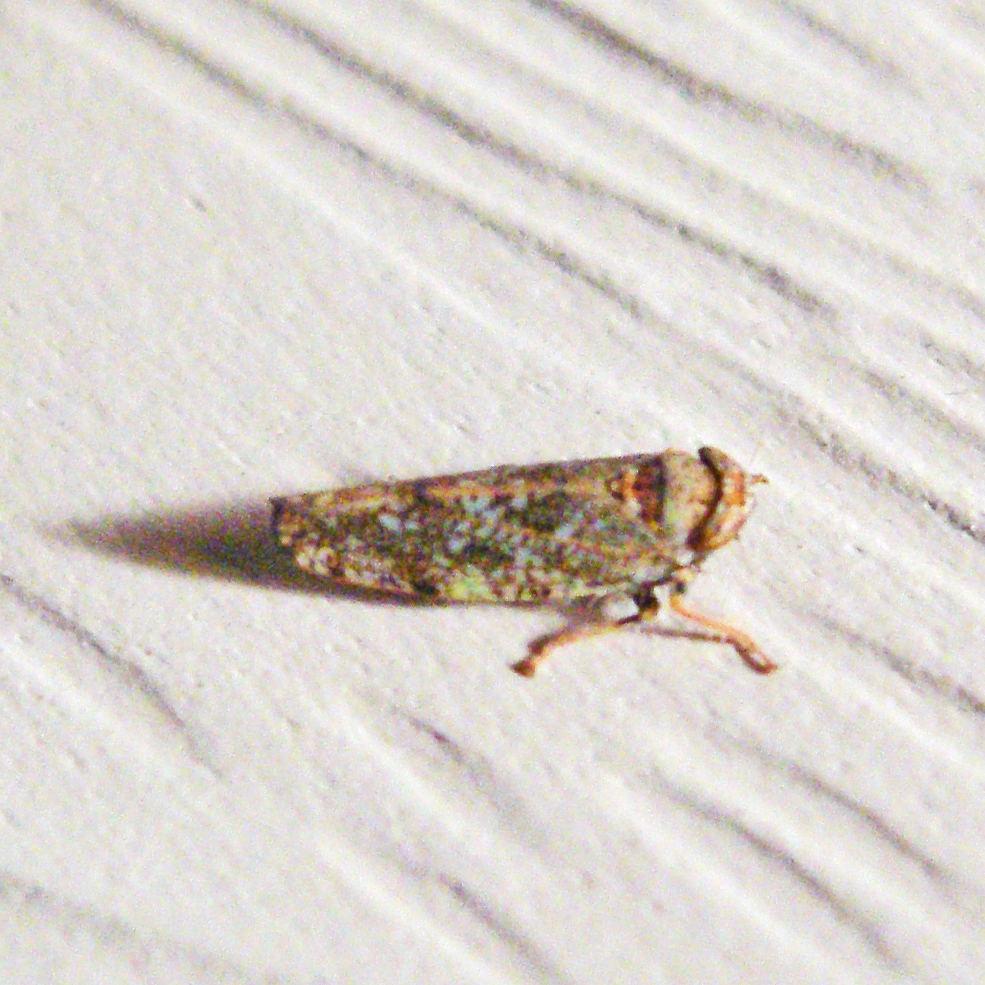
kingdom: Animalia
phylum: Arthropoda
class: Insecta
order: Hemiptera
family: Cicadellidae
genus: Orientus
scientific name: Orientus ishidae
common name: Japanese leafhopper
